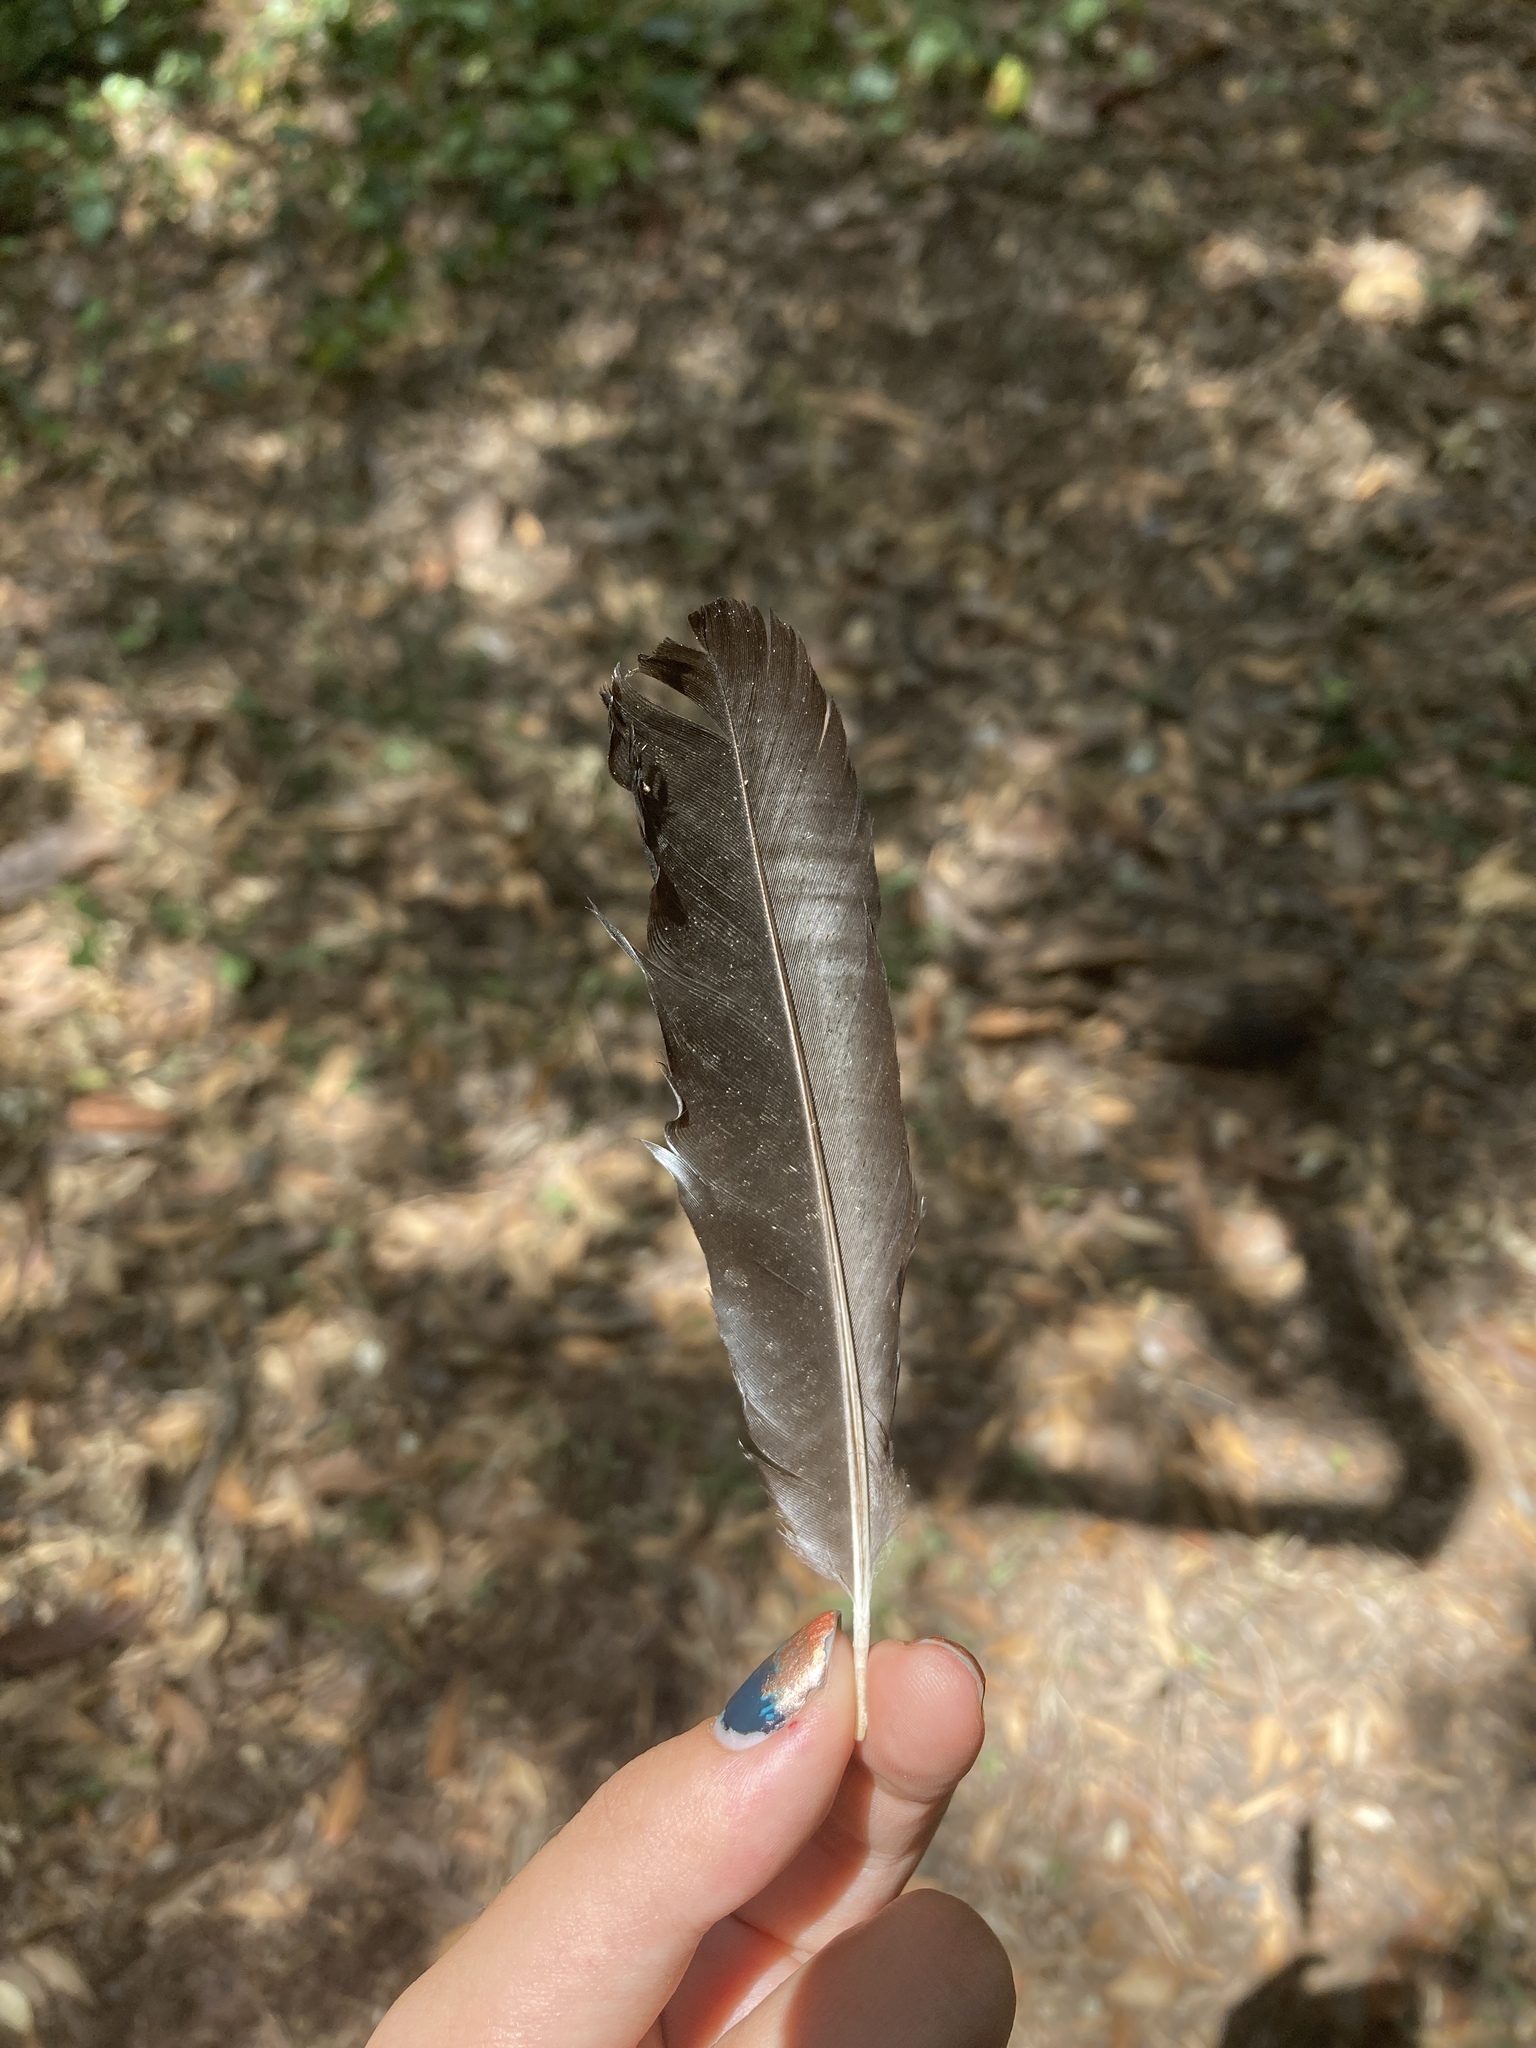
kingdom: Animalia
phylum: Chordata
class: Aves
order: Passeriformes
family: Corvidae
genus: Pica
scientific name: Pica pica
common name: Eurasian magpie
